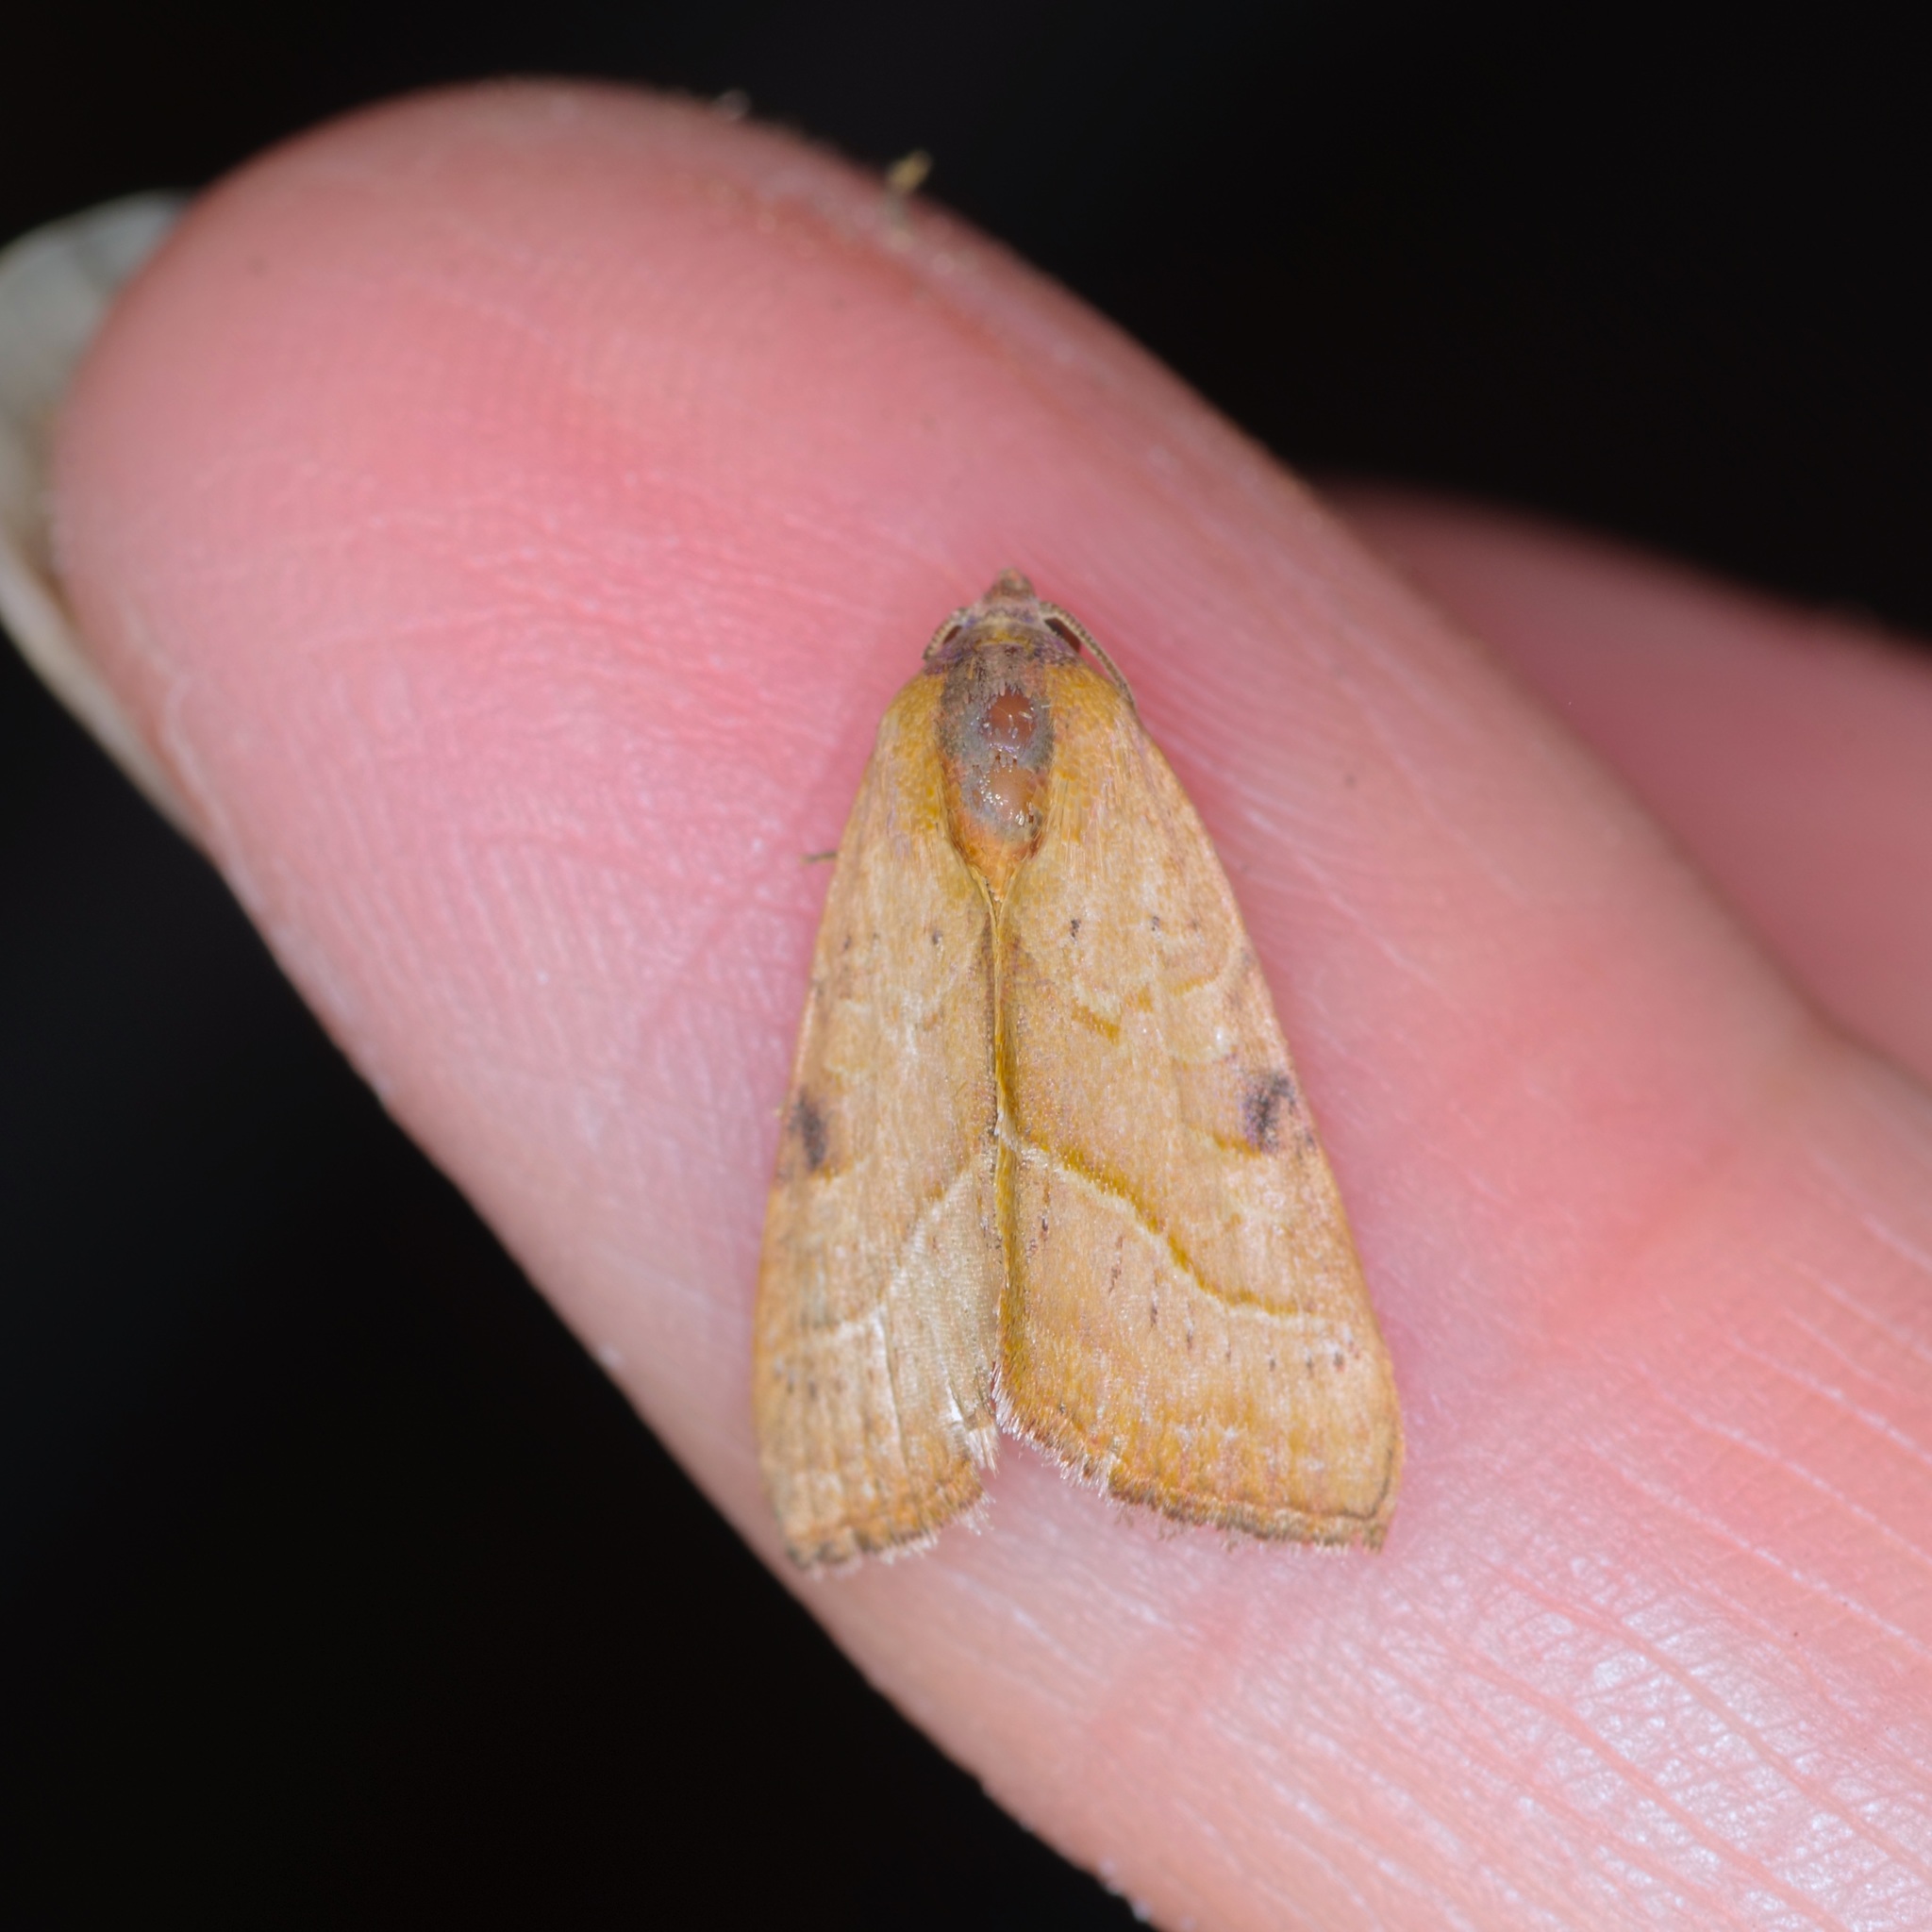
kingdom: Animalia
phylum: Arthropoda
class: Insecta
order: Lepidoptera
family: Noctuidae
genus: Galgula
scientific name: Galgula partita
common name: Wedgeling
